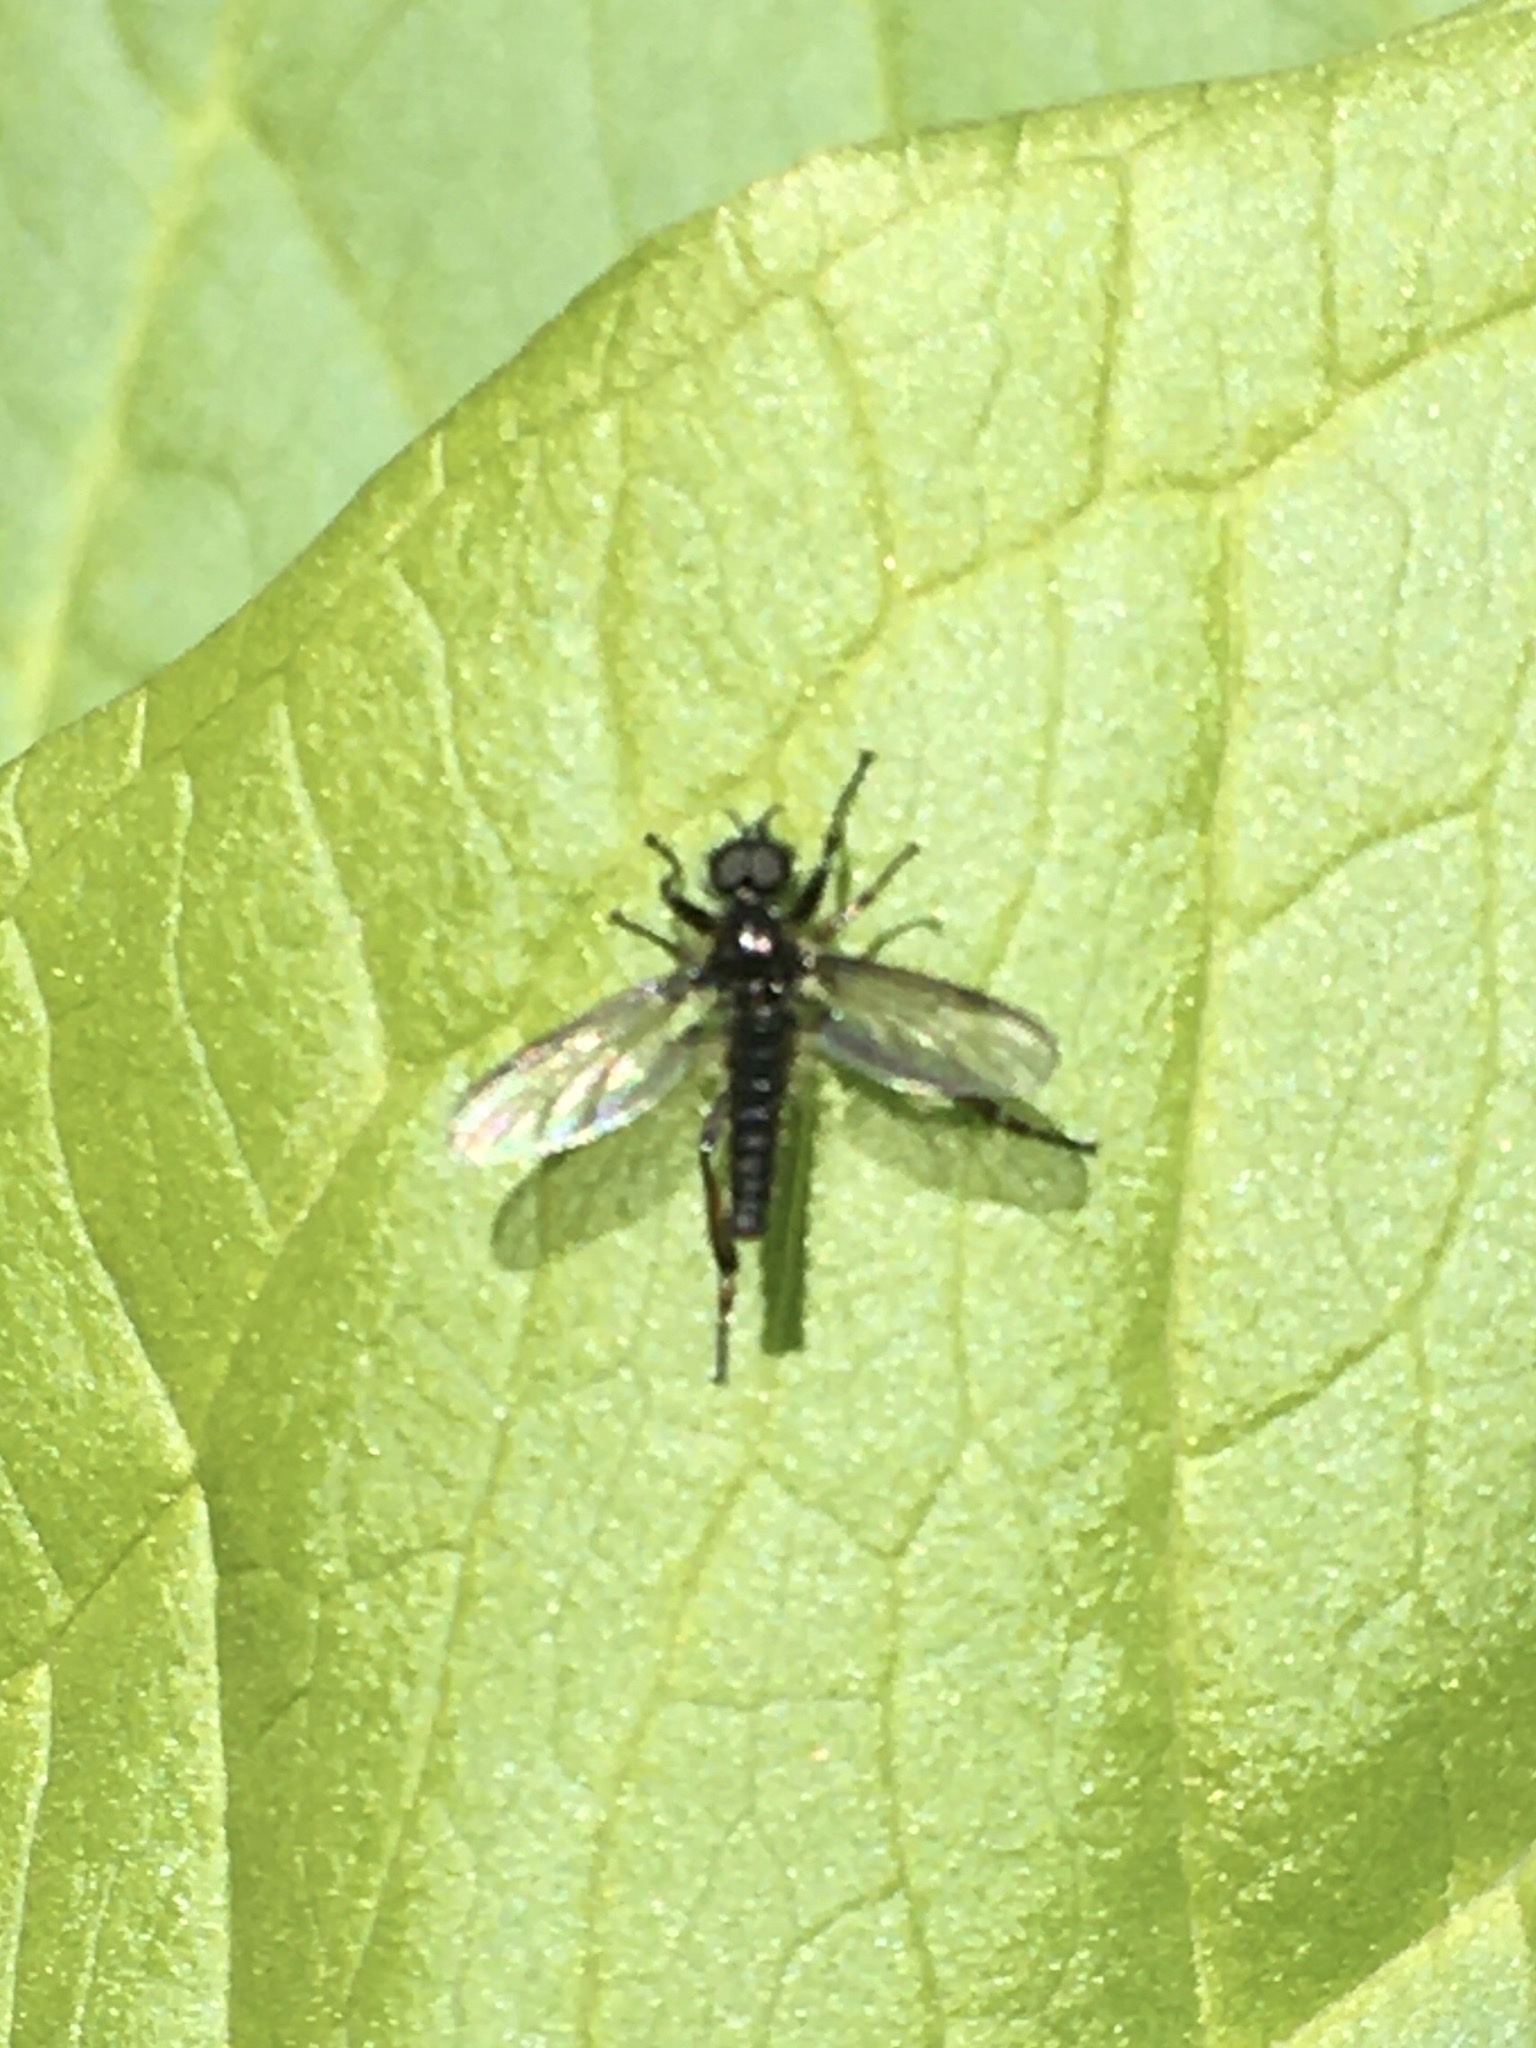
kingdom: Animalia
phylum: Arthropoda
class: Insecta
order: Diptera
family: Bibionidae
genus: Bibio
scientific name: Bibio lanigerus
